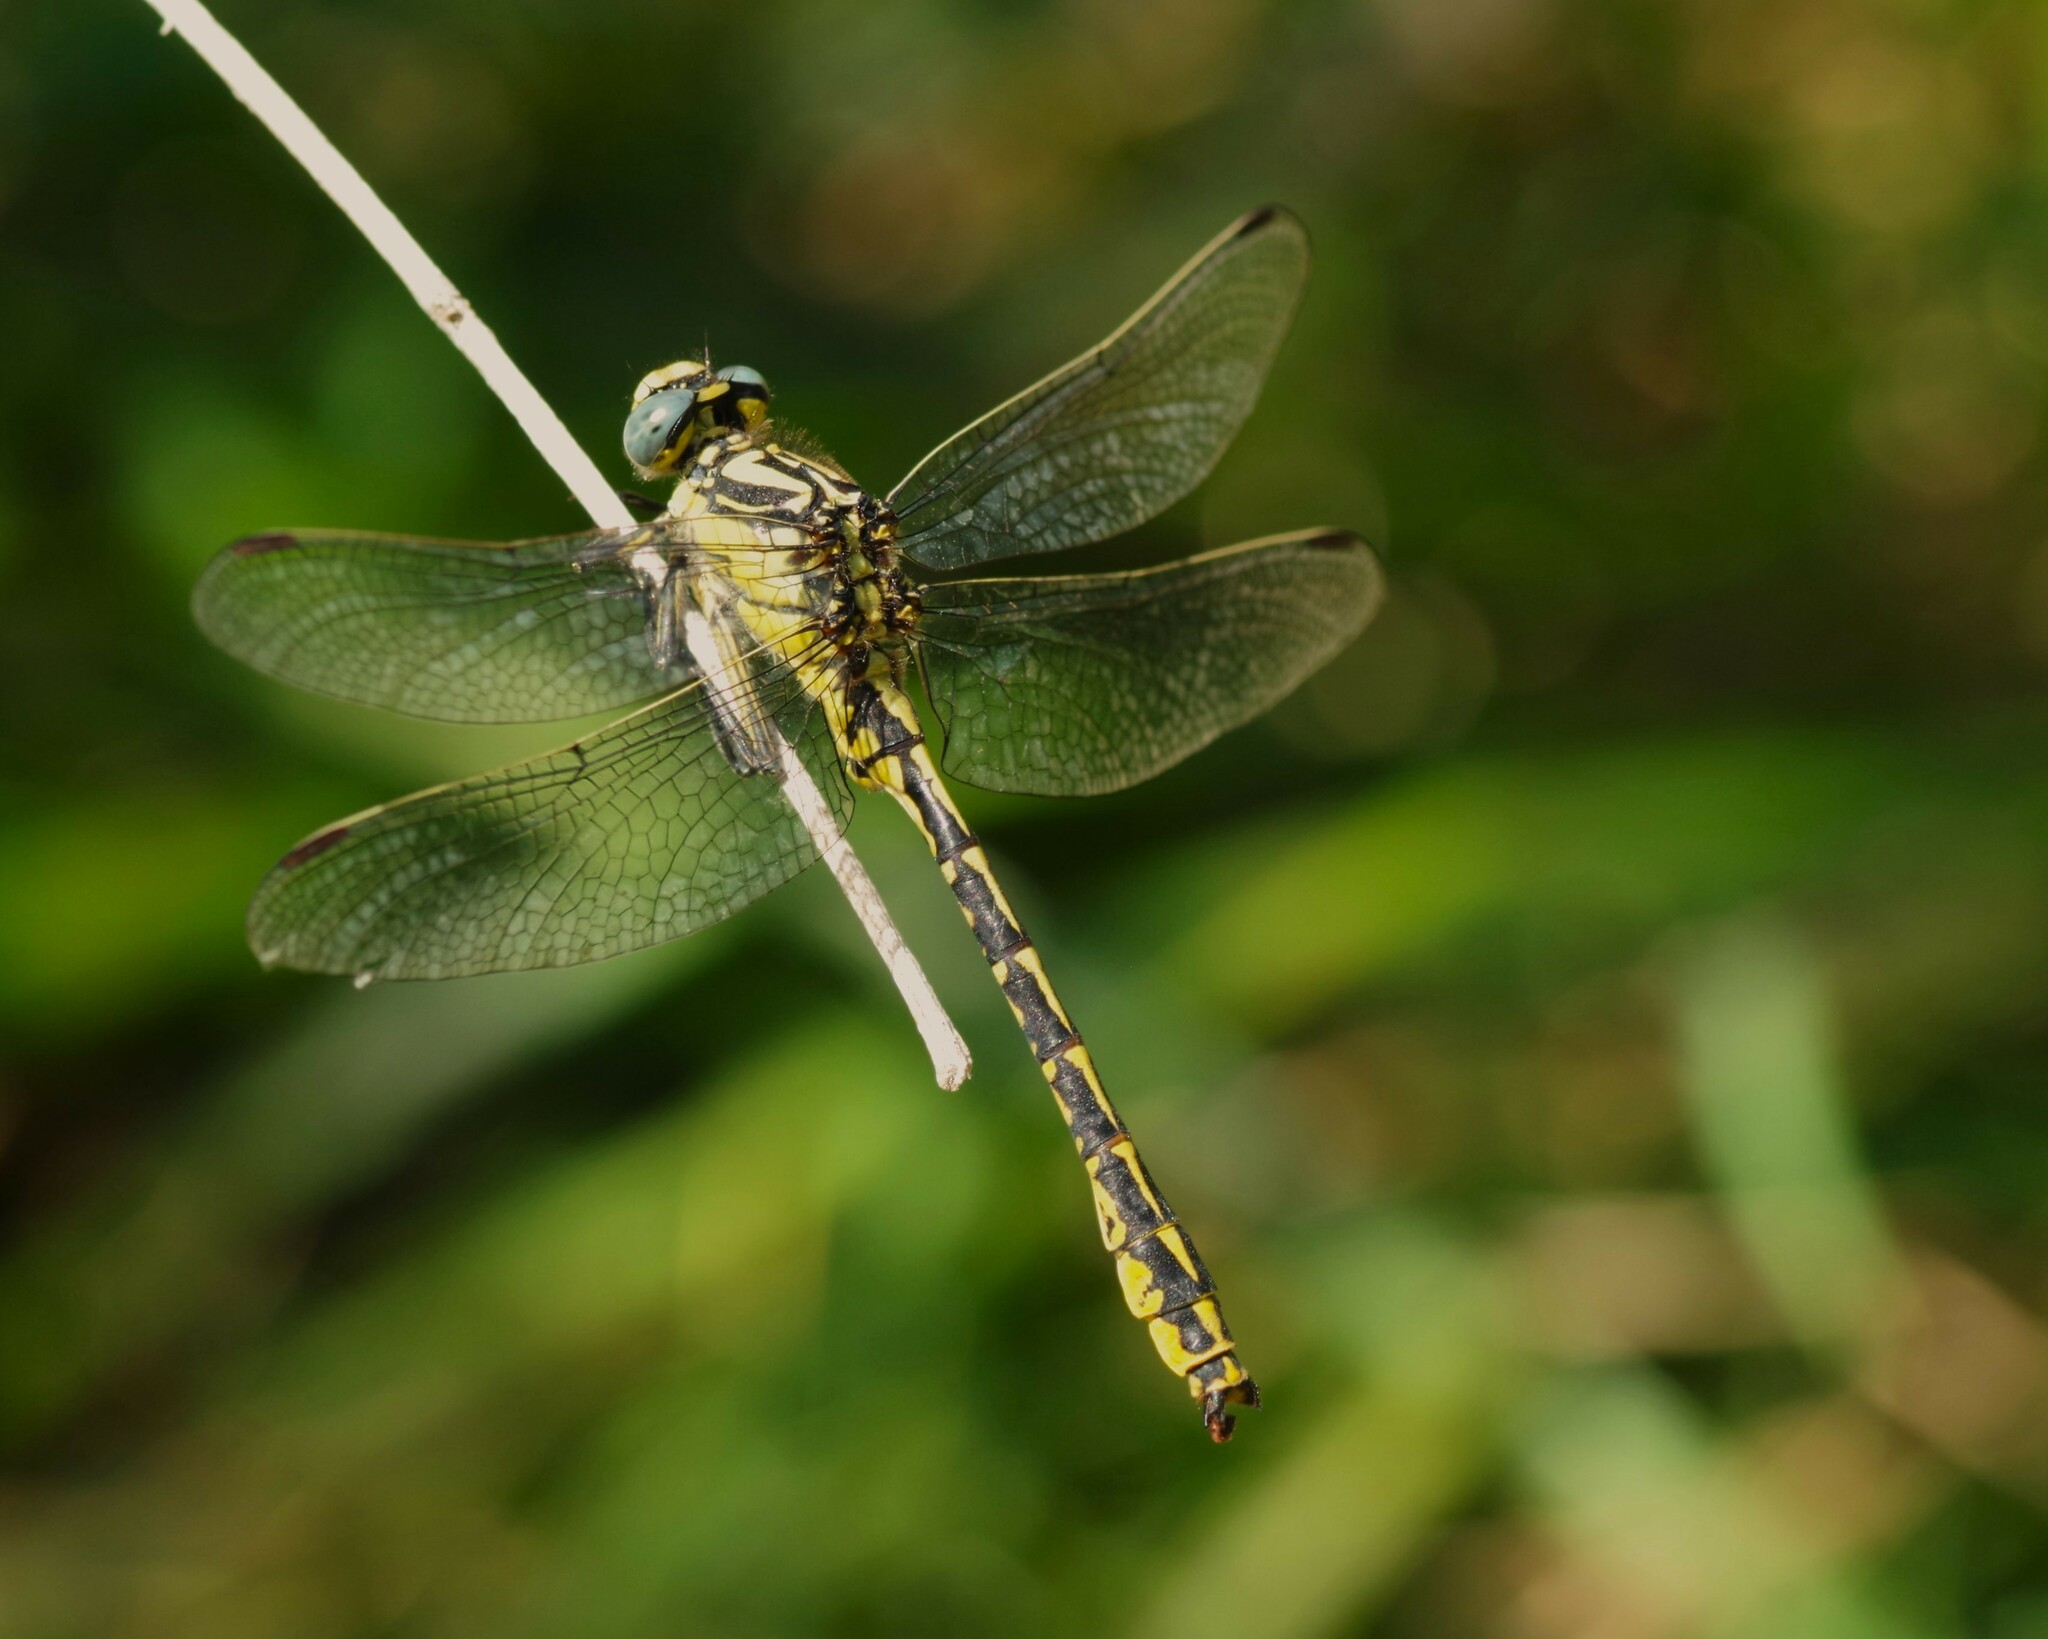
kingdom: Animalia
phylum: Arthropoda
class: Insecta
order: Odonata
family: Gomphidae
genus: Gomphus
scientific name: Gomphus graslinii
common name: Pronged clubtail
